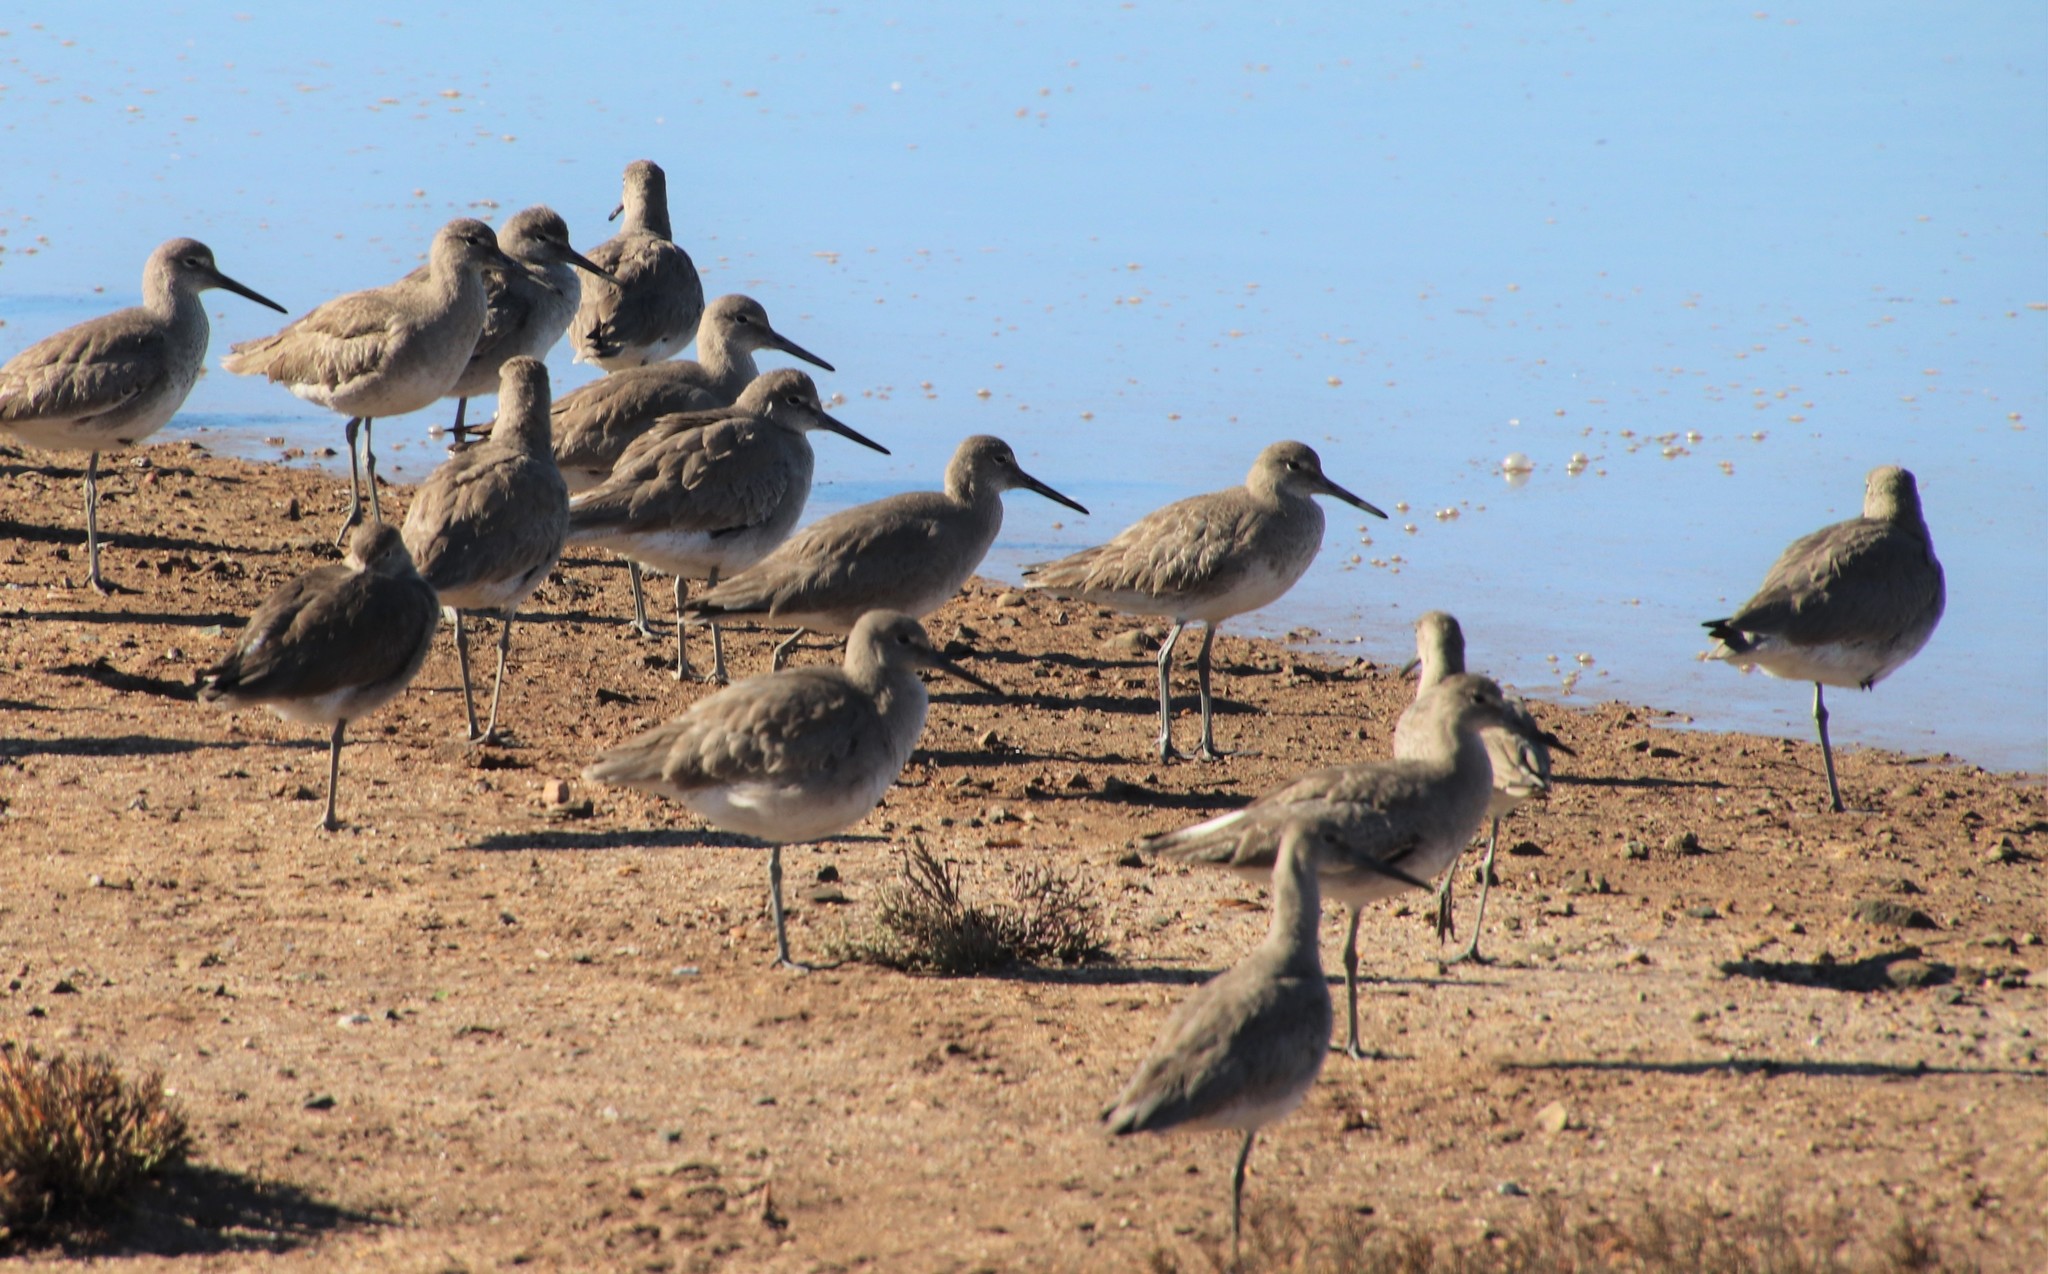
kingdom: Animalia
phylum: Chordata
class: Aves
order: Charadriiformes
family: Scolopacidae
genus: Tringa
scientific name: Tringa semipalmata
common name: Willet
